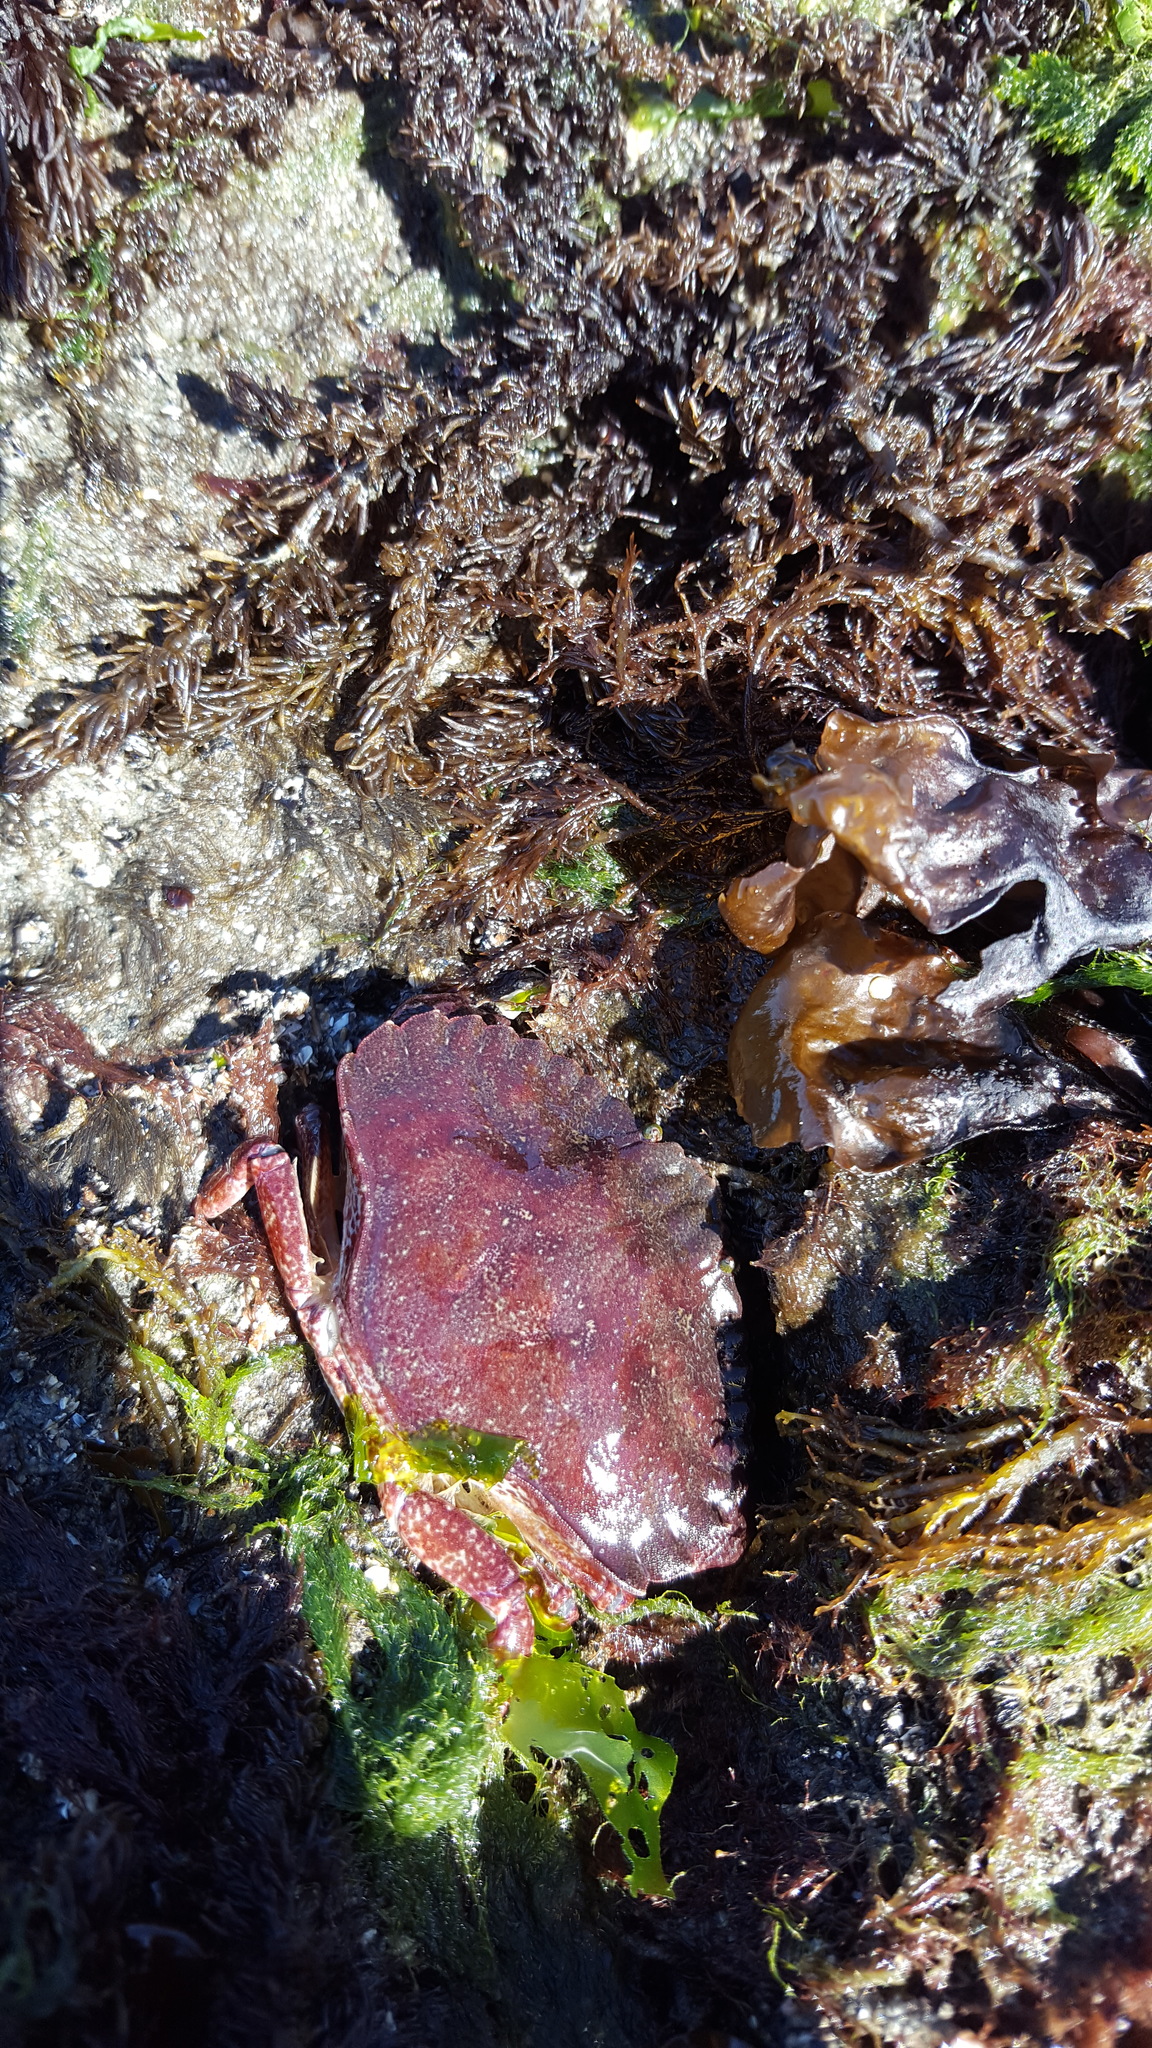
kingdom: Animalia
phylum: Arthropoda
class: Malacostraca
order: Decapoda
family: Cancridae
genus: Cancer
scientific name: Cancer productus
